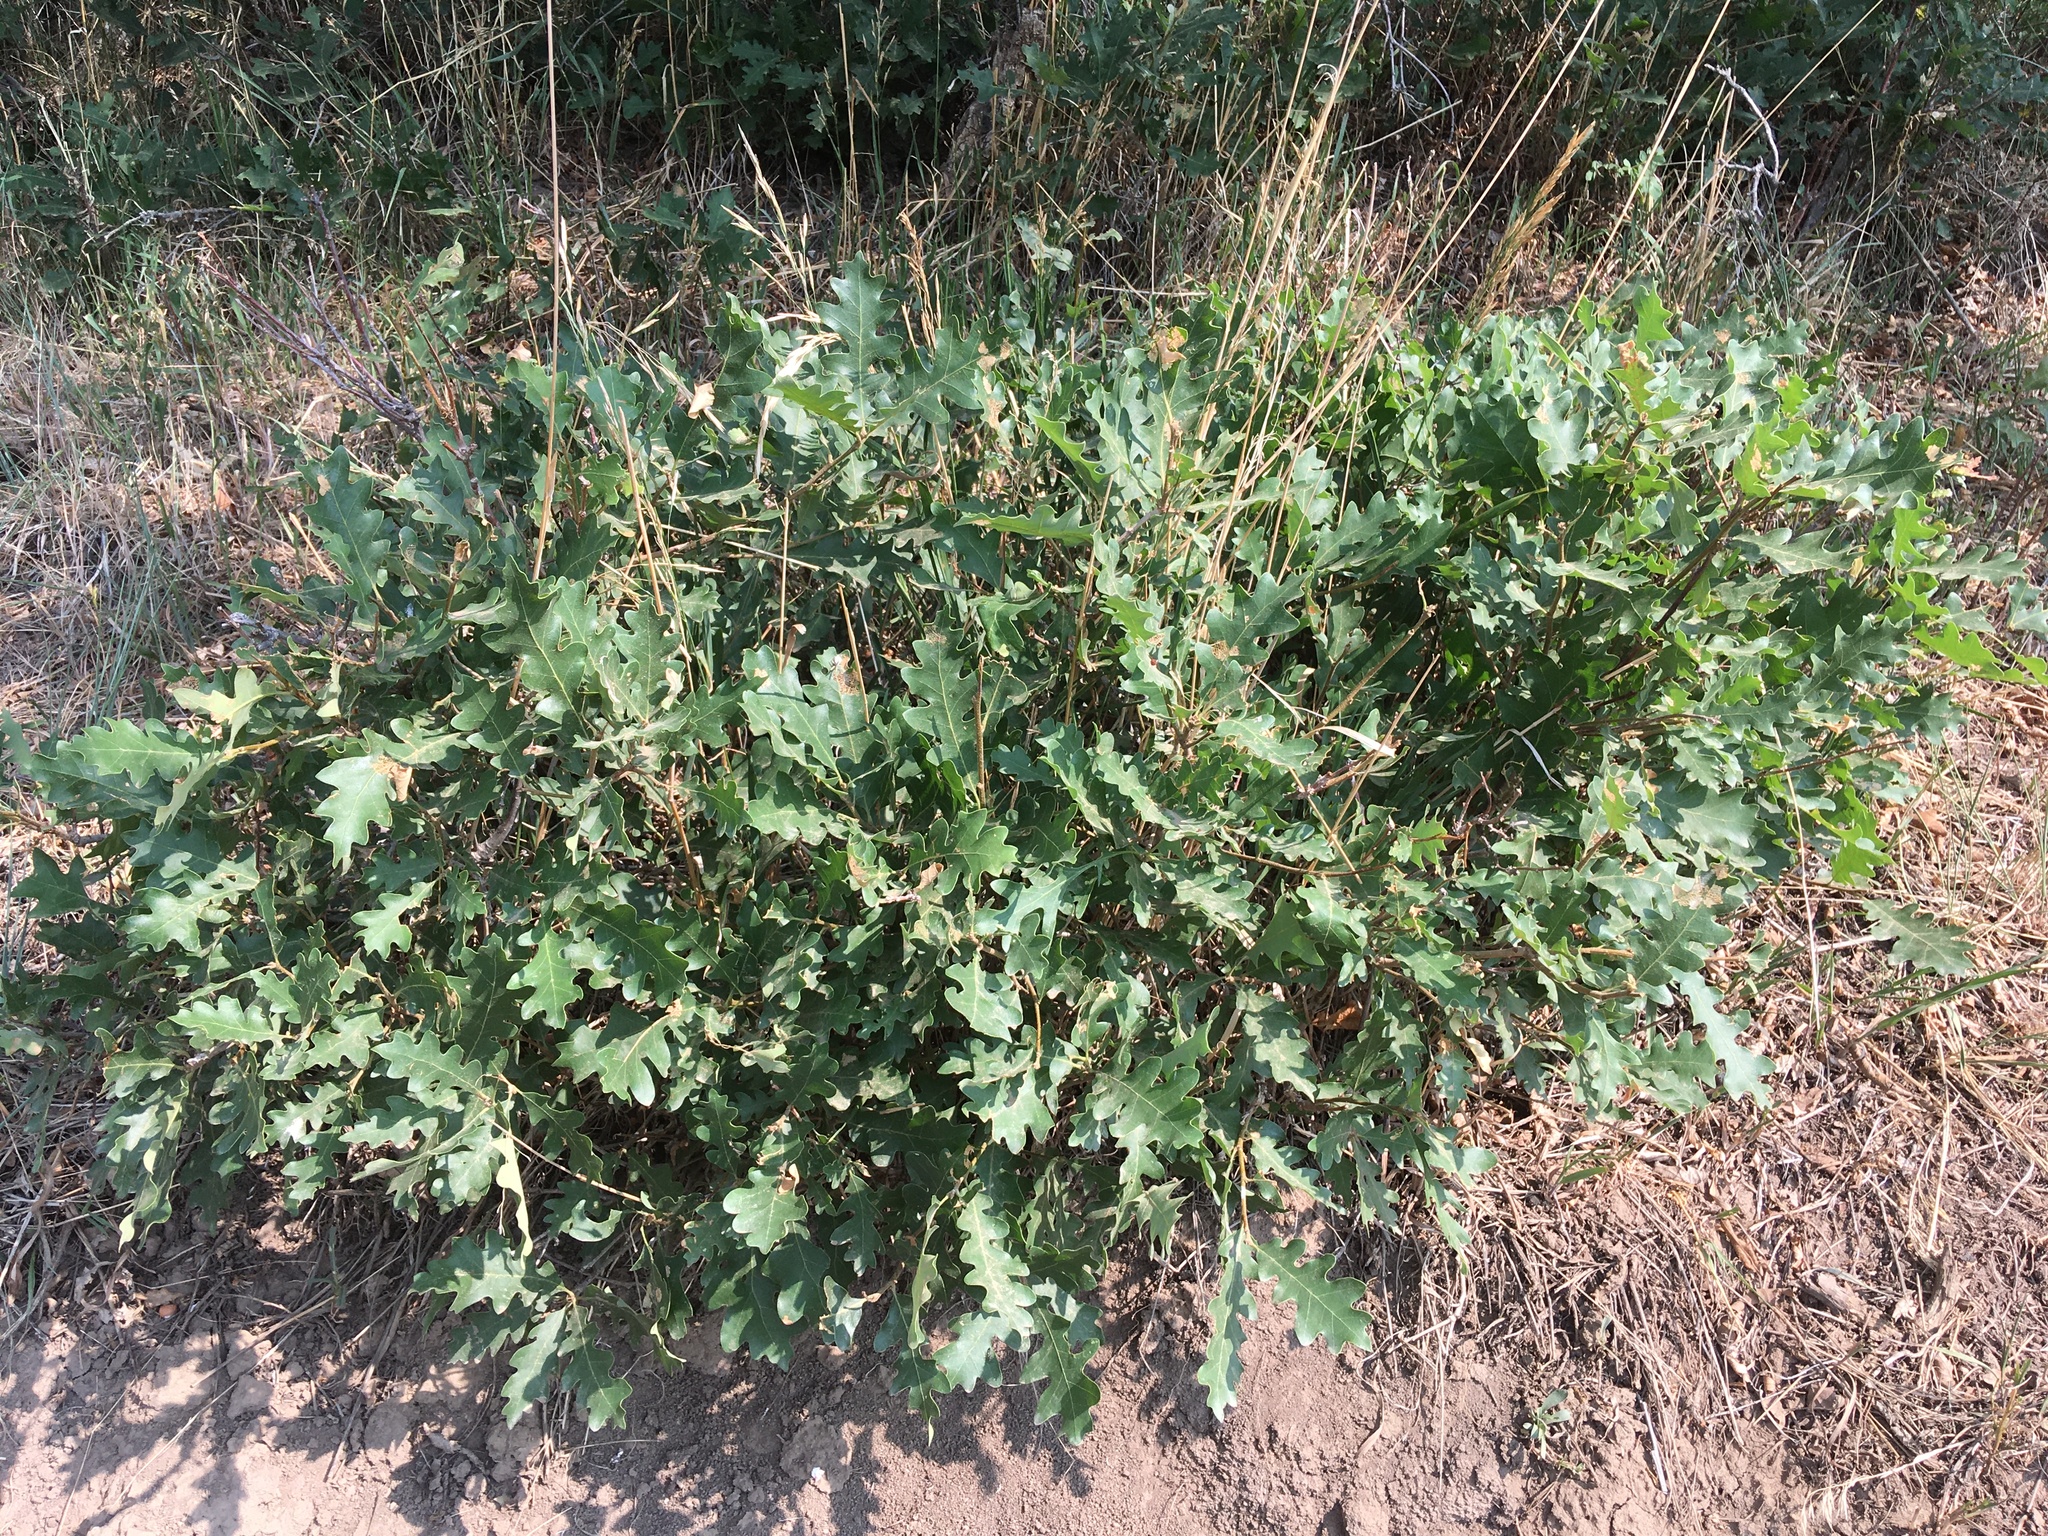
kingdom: Plantae
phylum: Tracheophyta
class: Magnoliopsida
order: Fagales
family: Fagaceae
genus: Quercus
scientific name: Quercus gambelii
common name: Gambel oak
